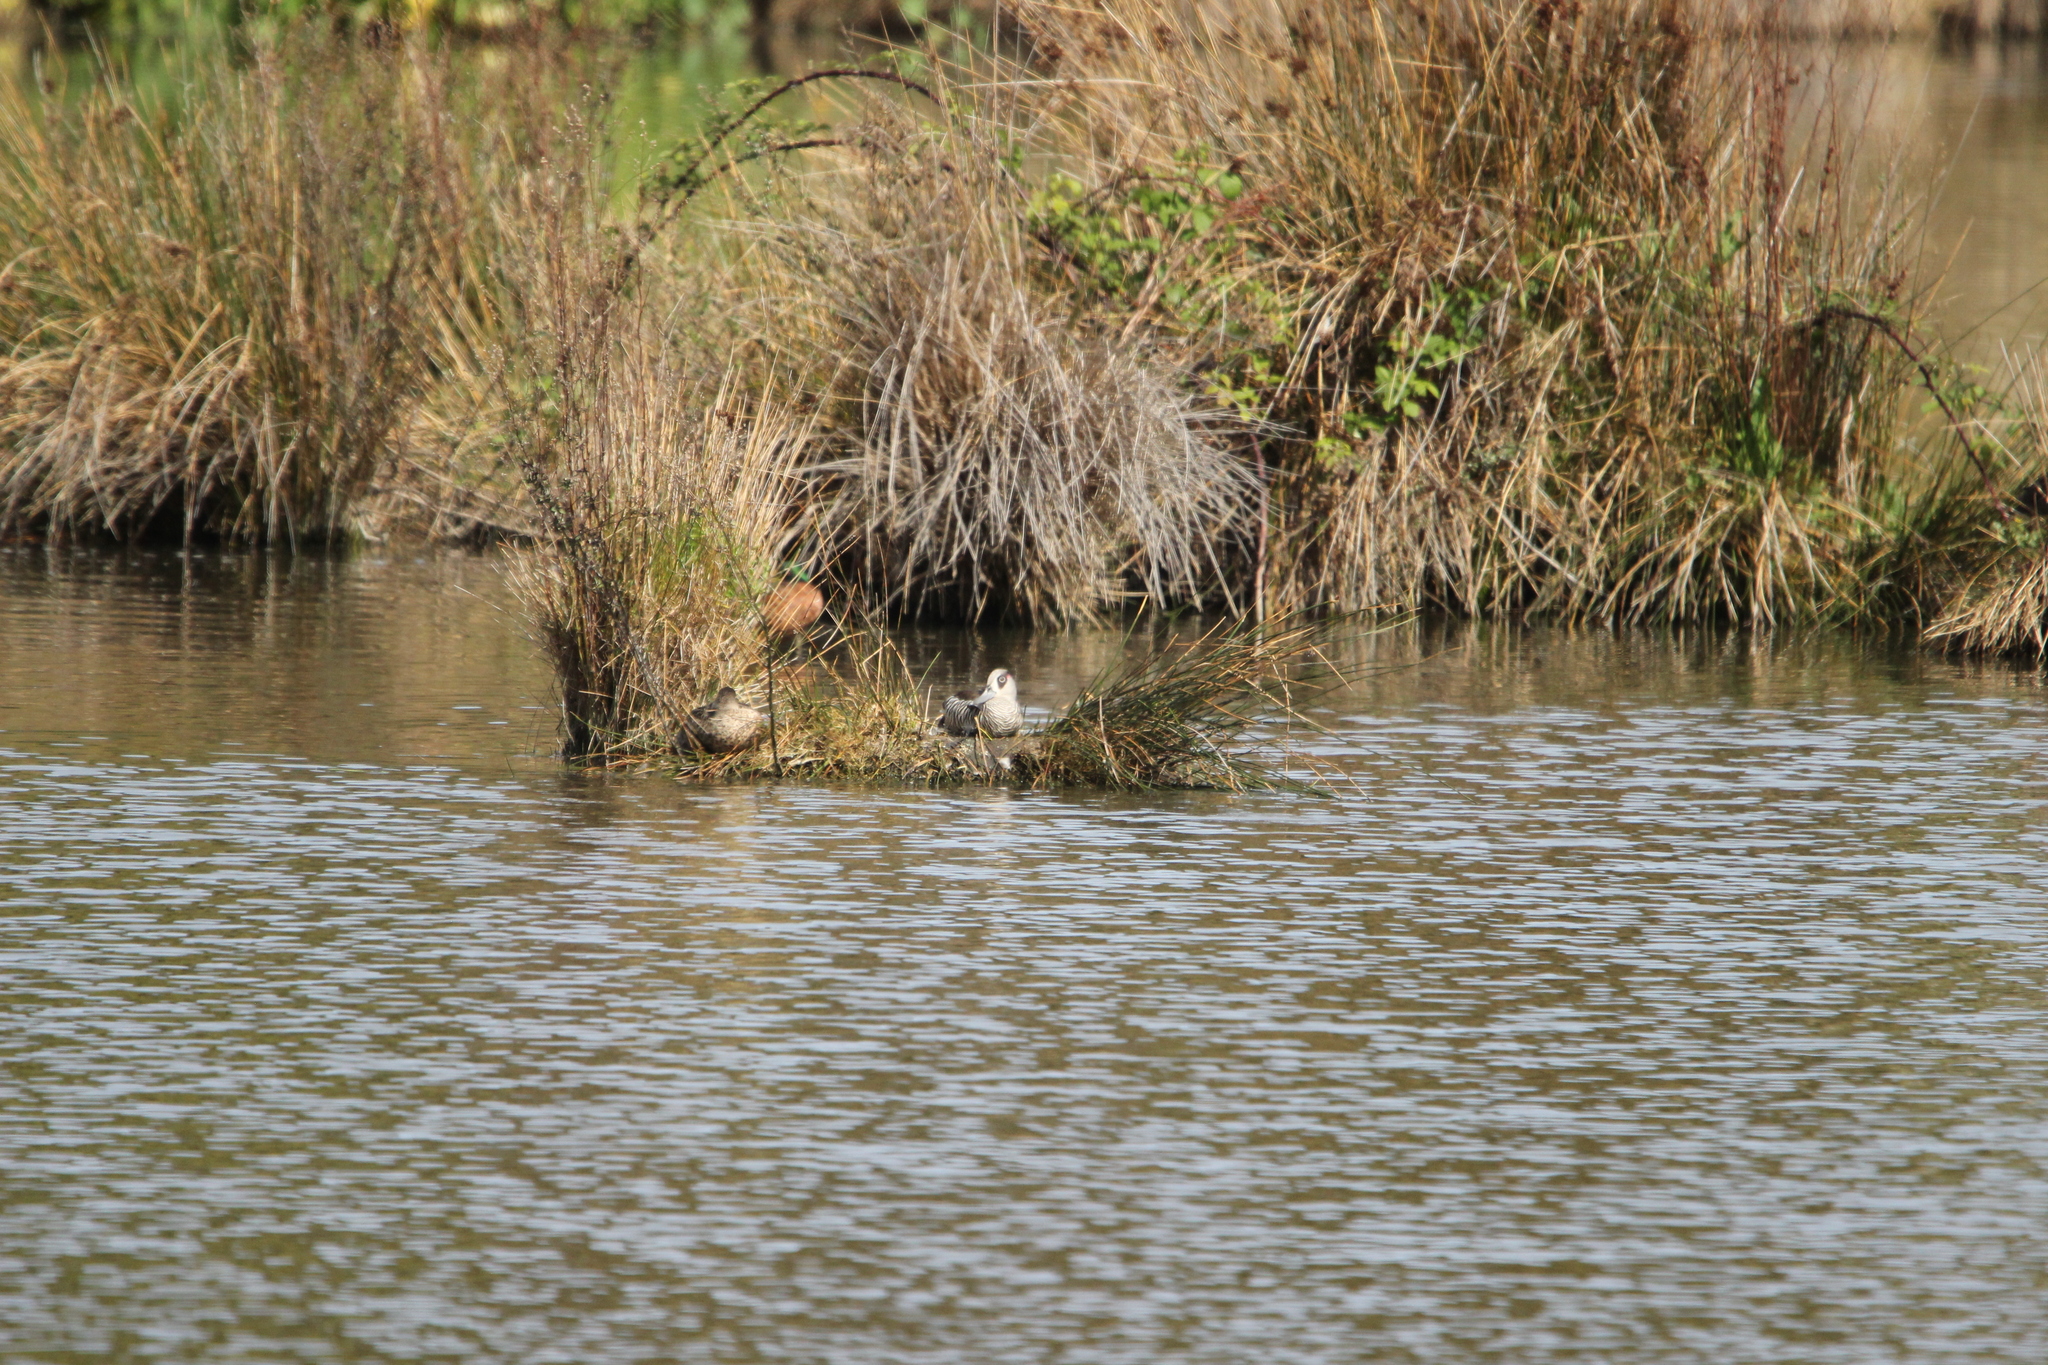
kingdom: Animalia
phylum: Chordata
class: Aves
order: Anseriformes
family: Anatidae
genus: Malacorhynchus
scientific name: Malacorhynchus membranaceus
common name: Pink-eared duck
